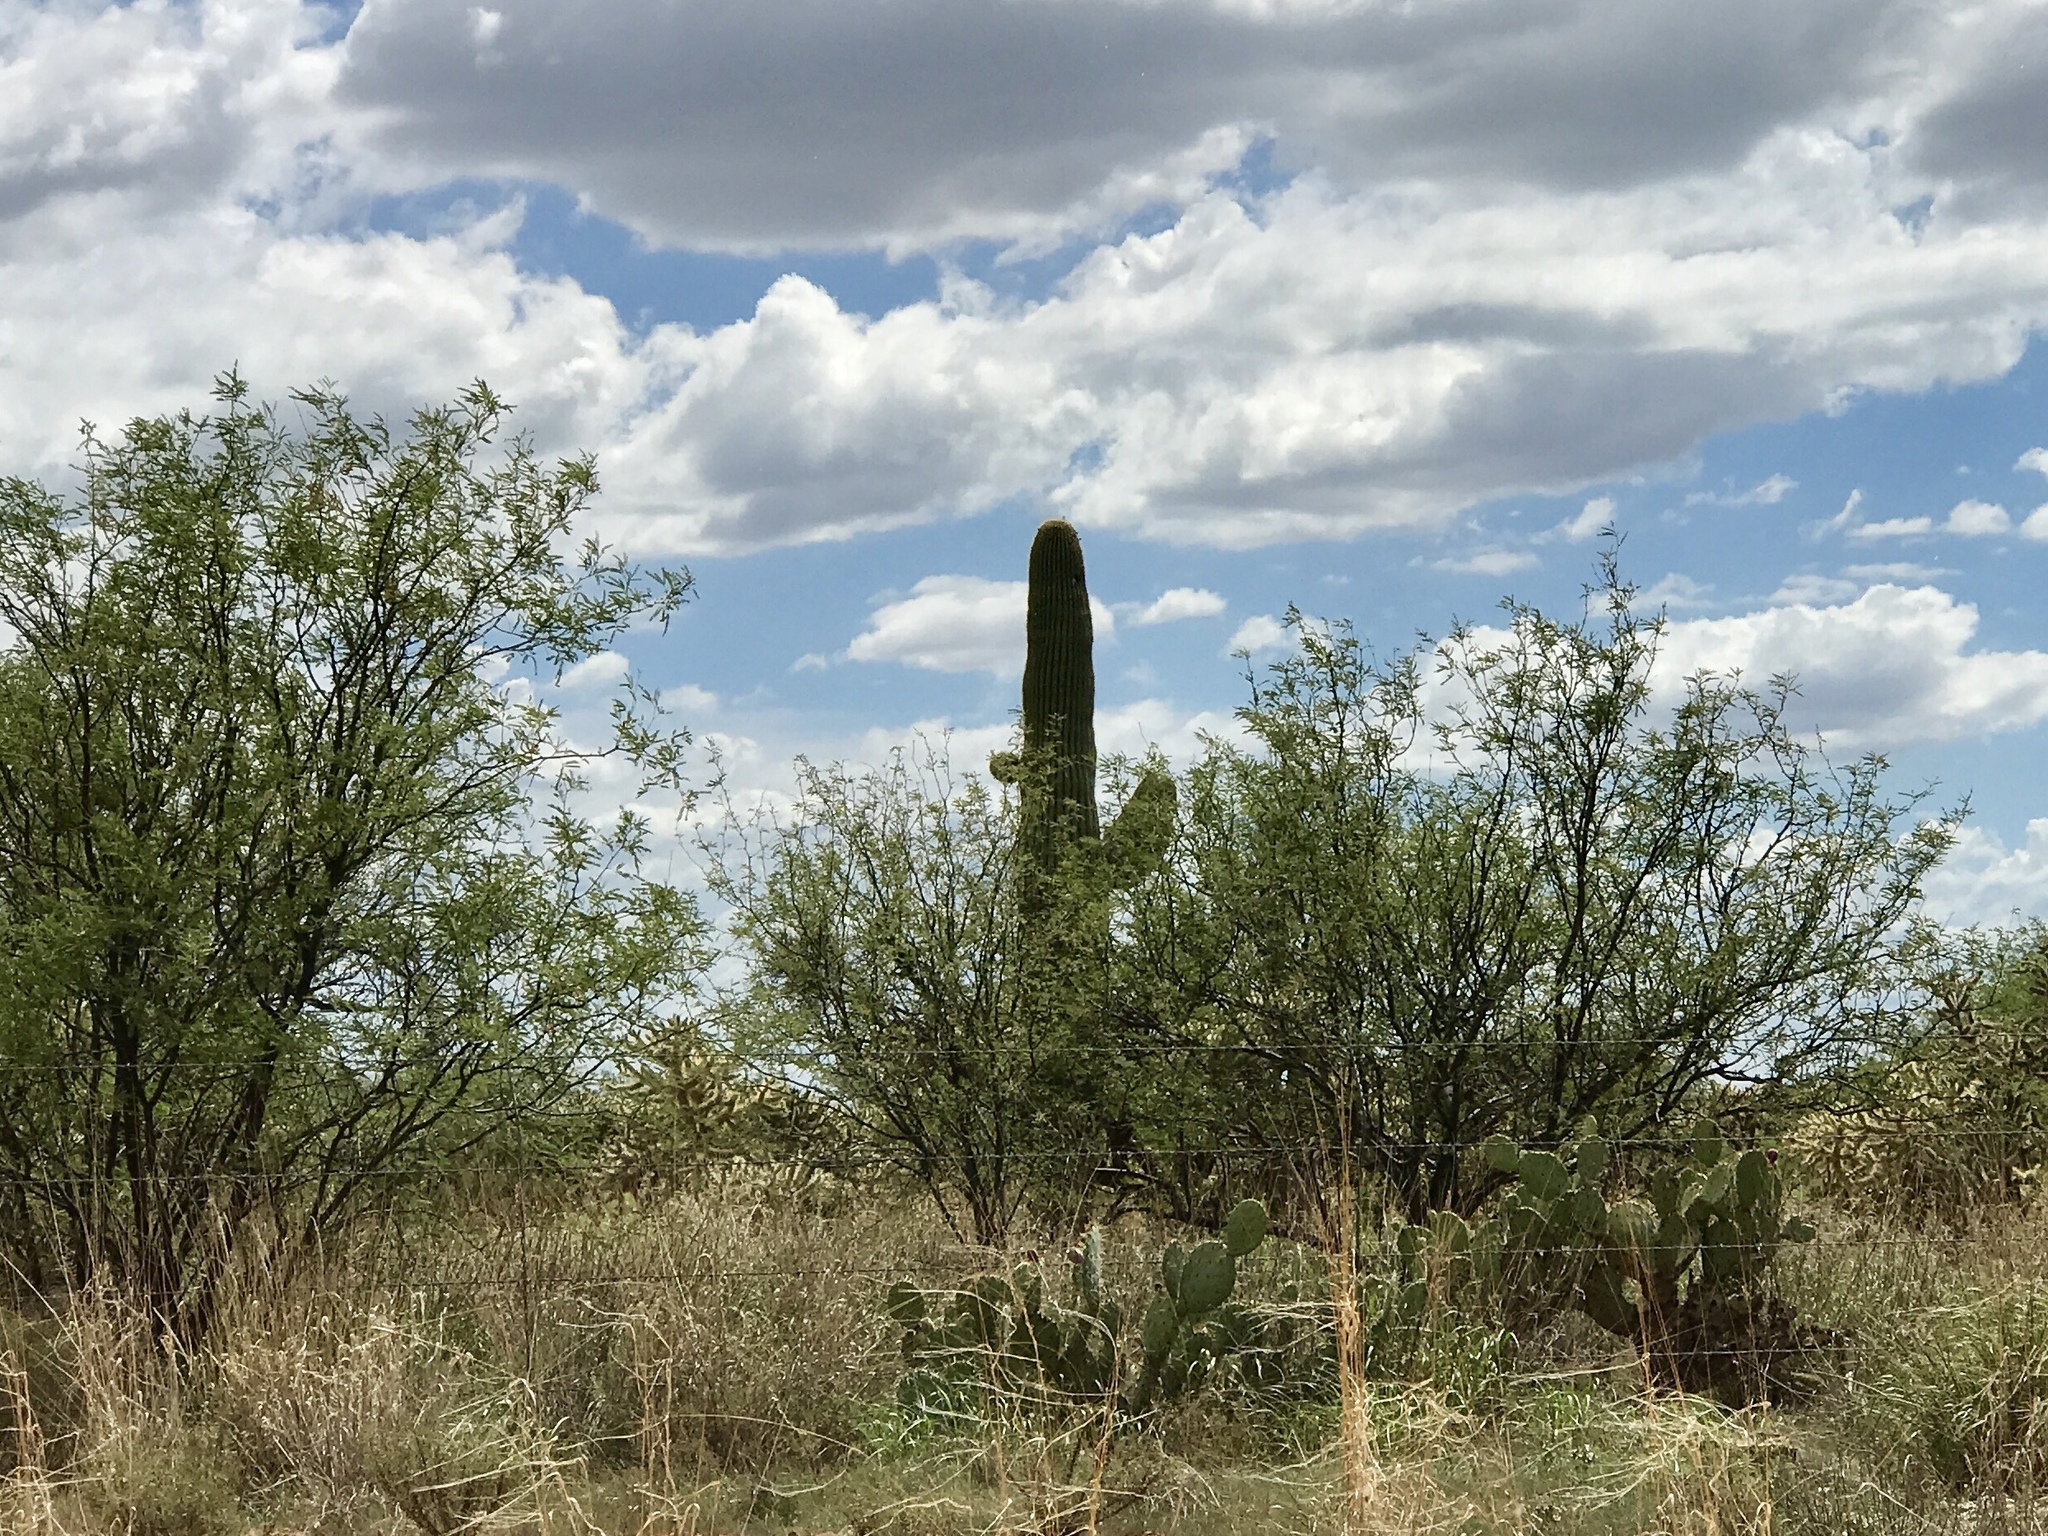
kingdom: Plantae
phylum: Tracheophyta
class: Magnoliopsida
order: Caryophyllales
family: Cactaceae
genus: Carnegiea
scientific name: Carnegiea gigantea
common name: Saguaro
